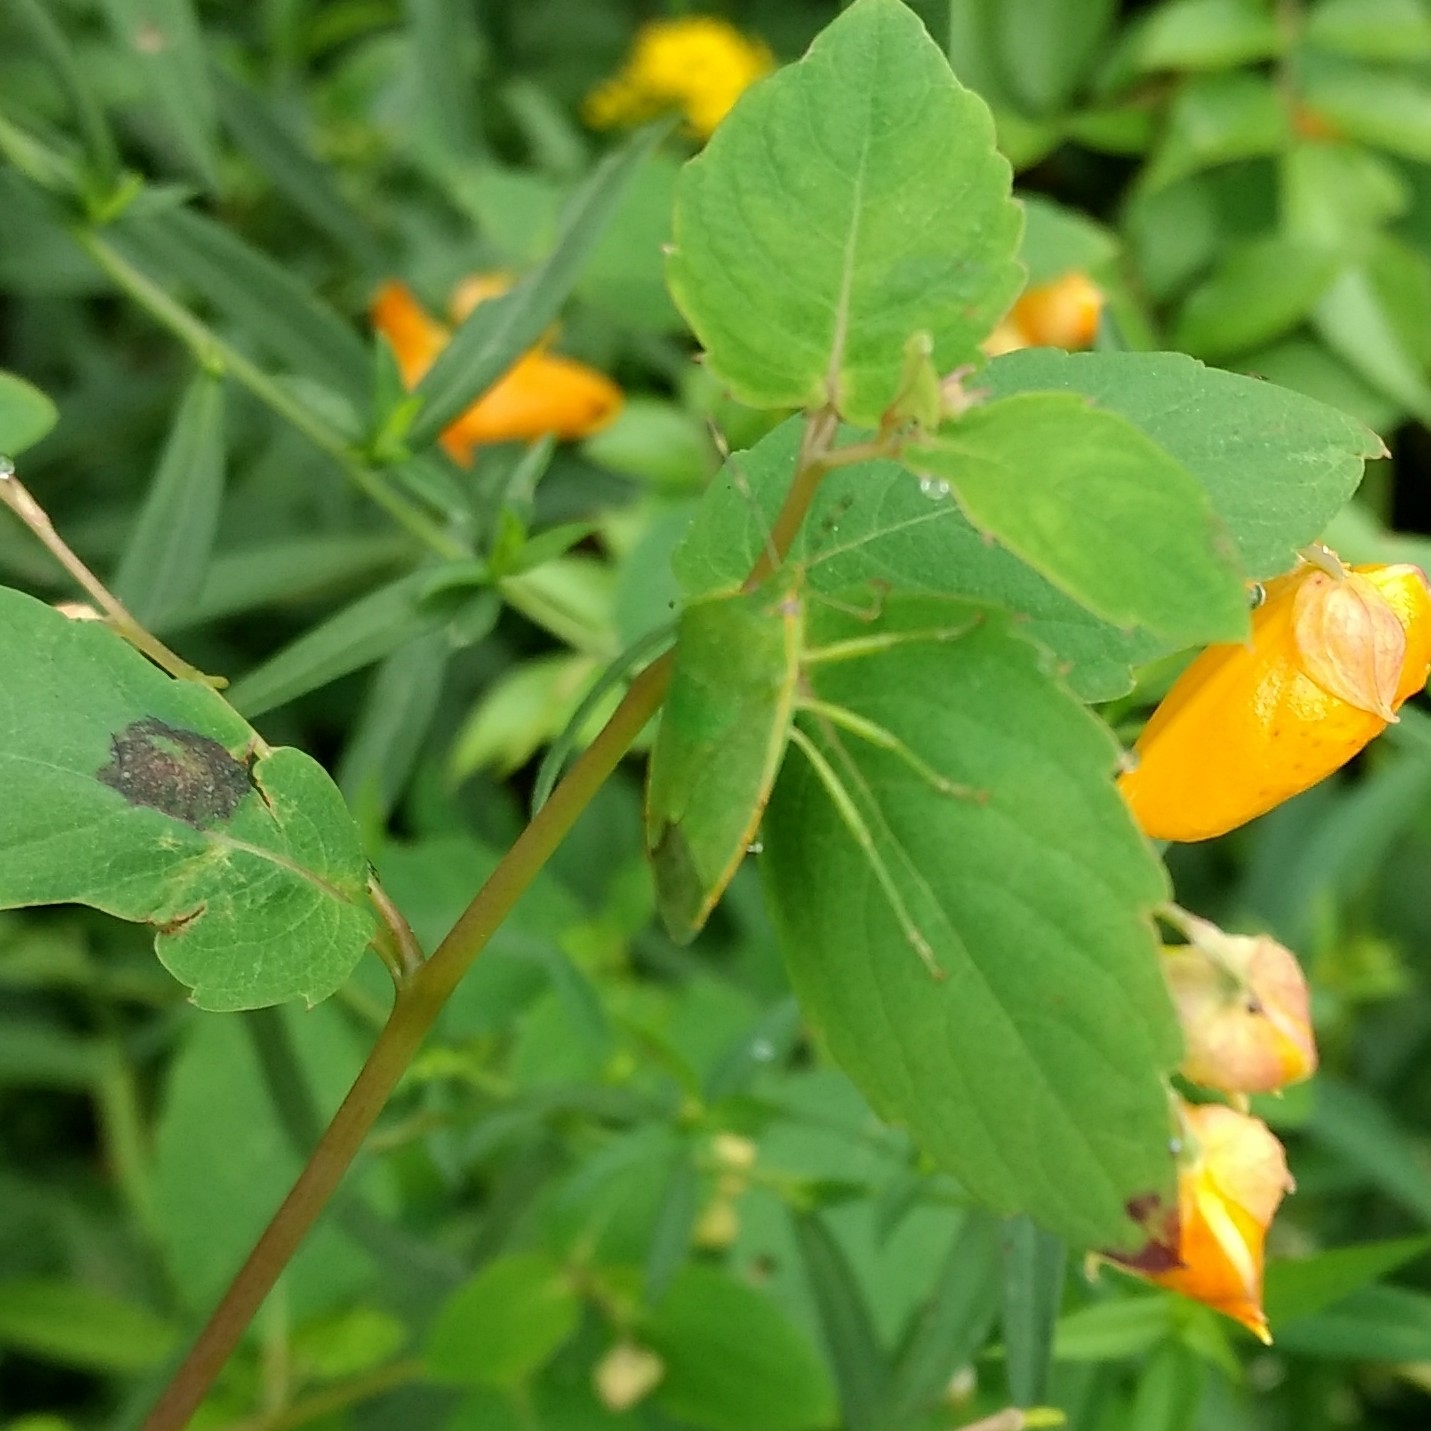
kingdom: Animalia
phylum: Arthropoda
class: Insecta
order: Hemiptera
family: Pentatomidae
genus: Chinavia
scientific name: Chinavia hilaris
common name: Green stink bug
